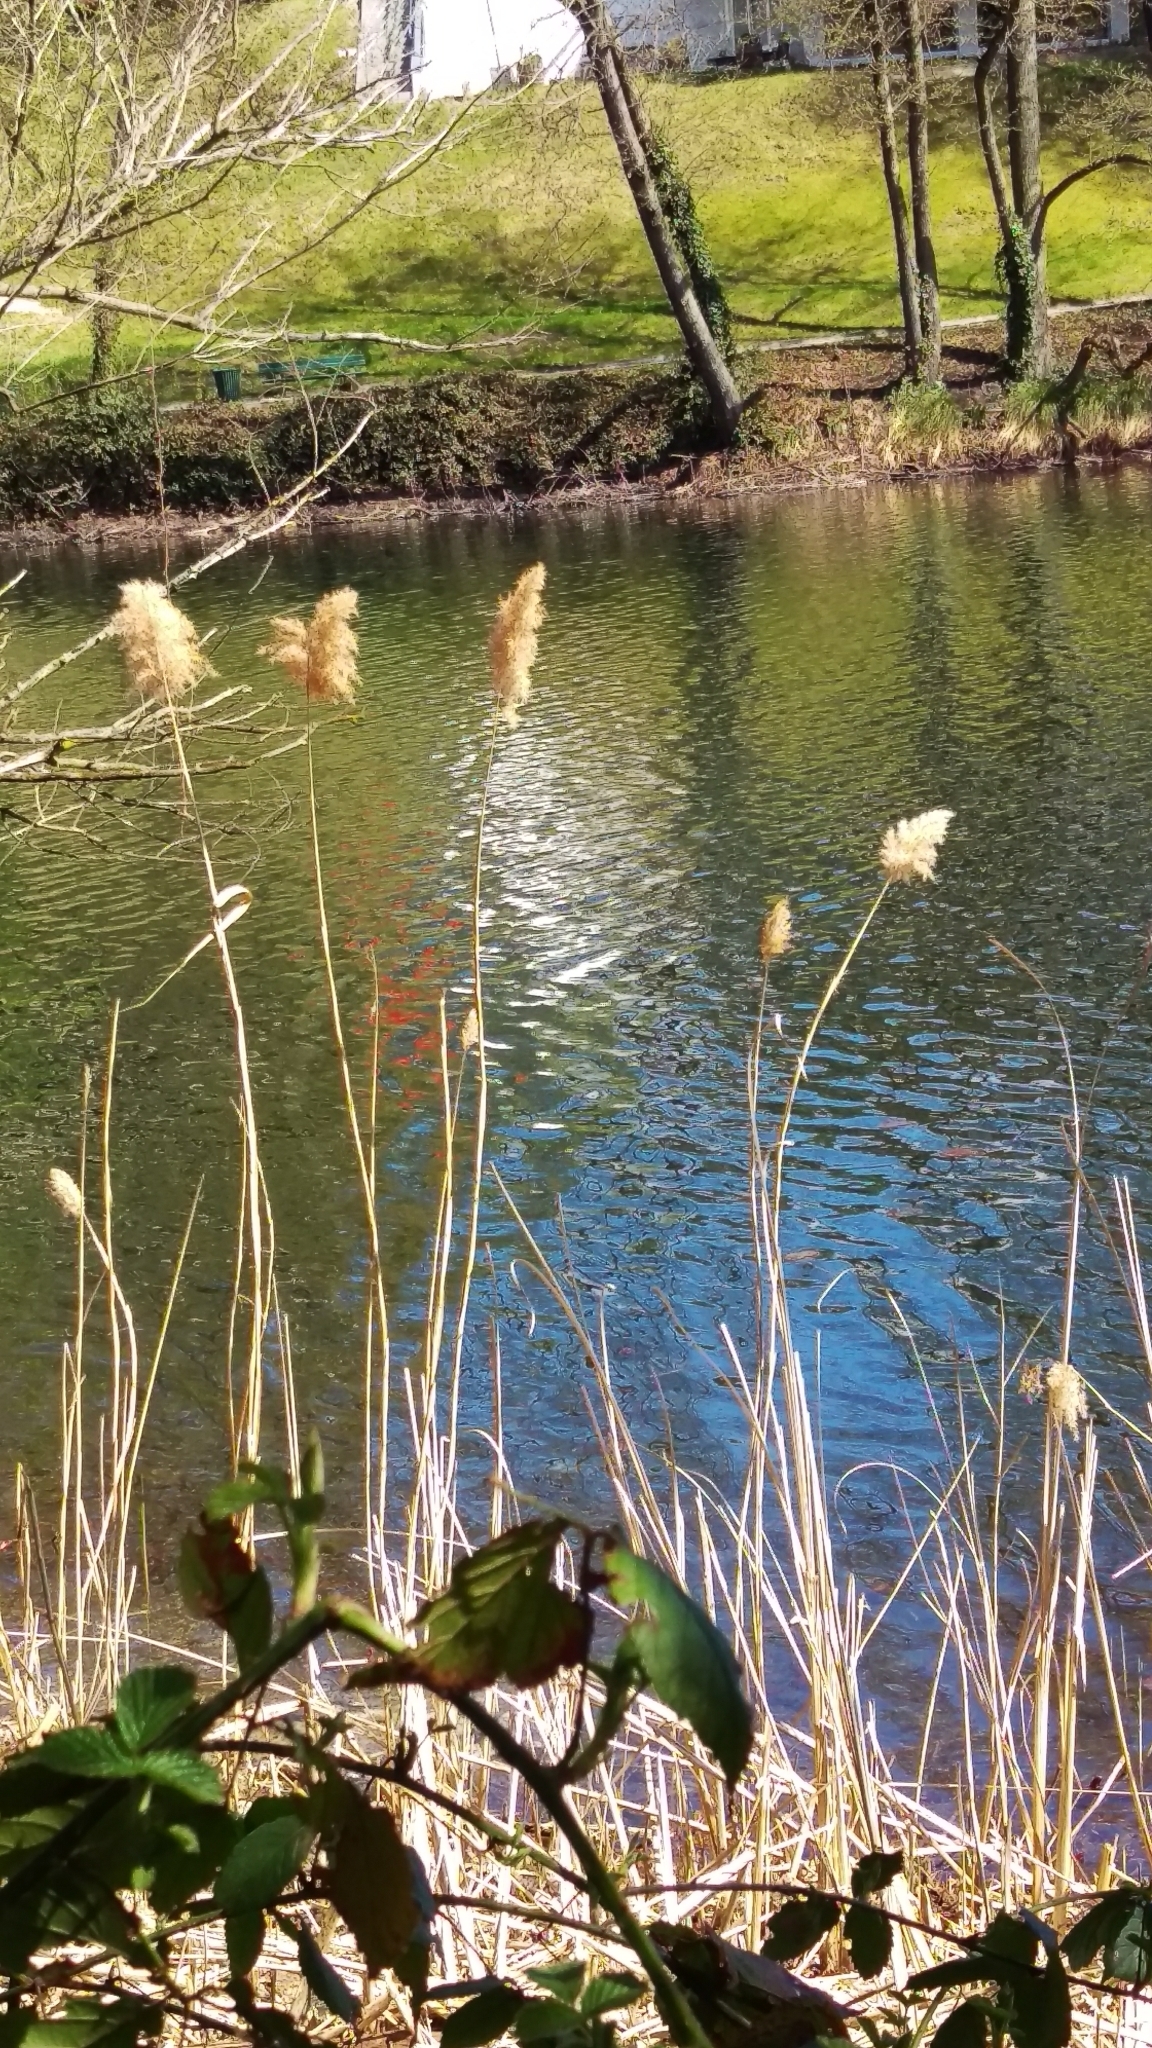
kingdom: Plantae
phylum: Tracheophyta
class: Liliopsida
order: Poales
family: Poaceae
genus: Phragmites
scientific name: Phragmites australis
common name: Common reed
